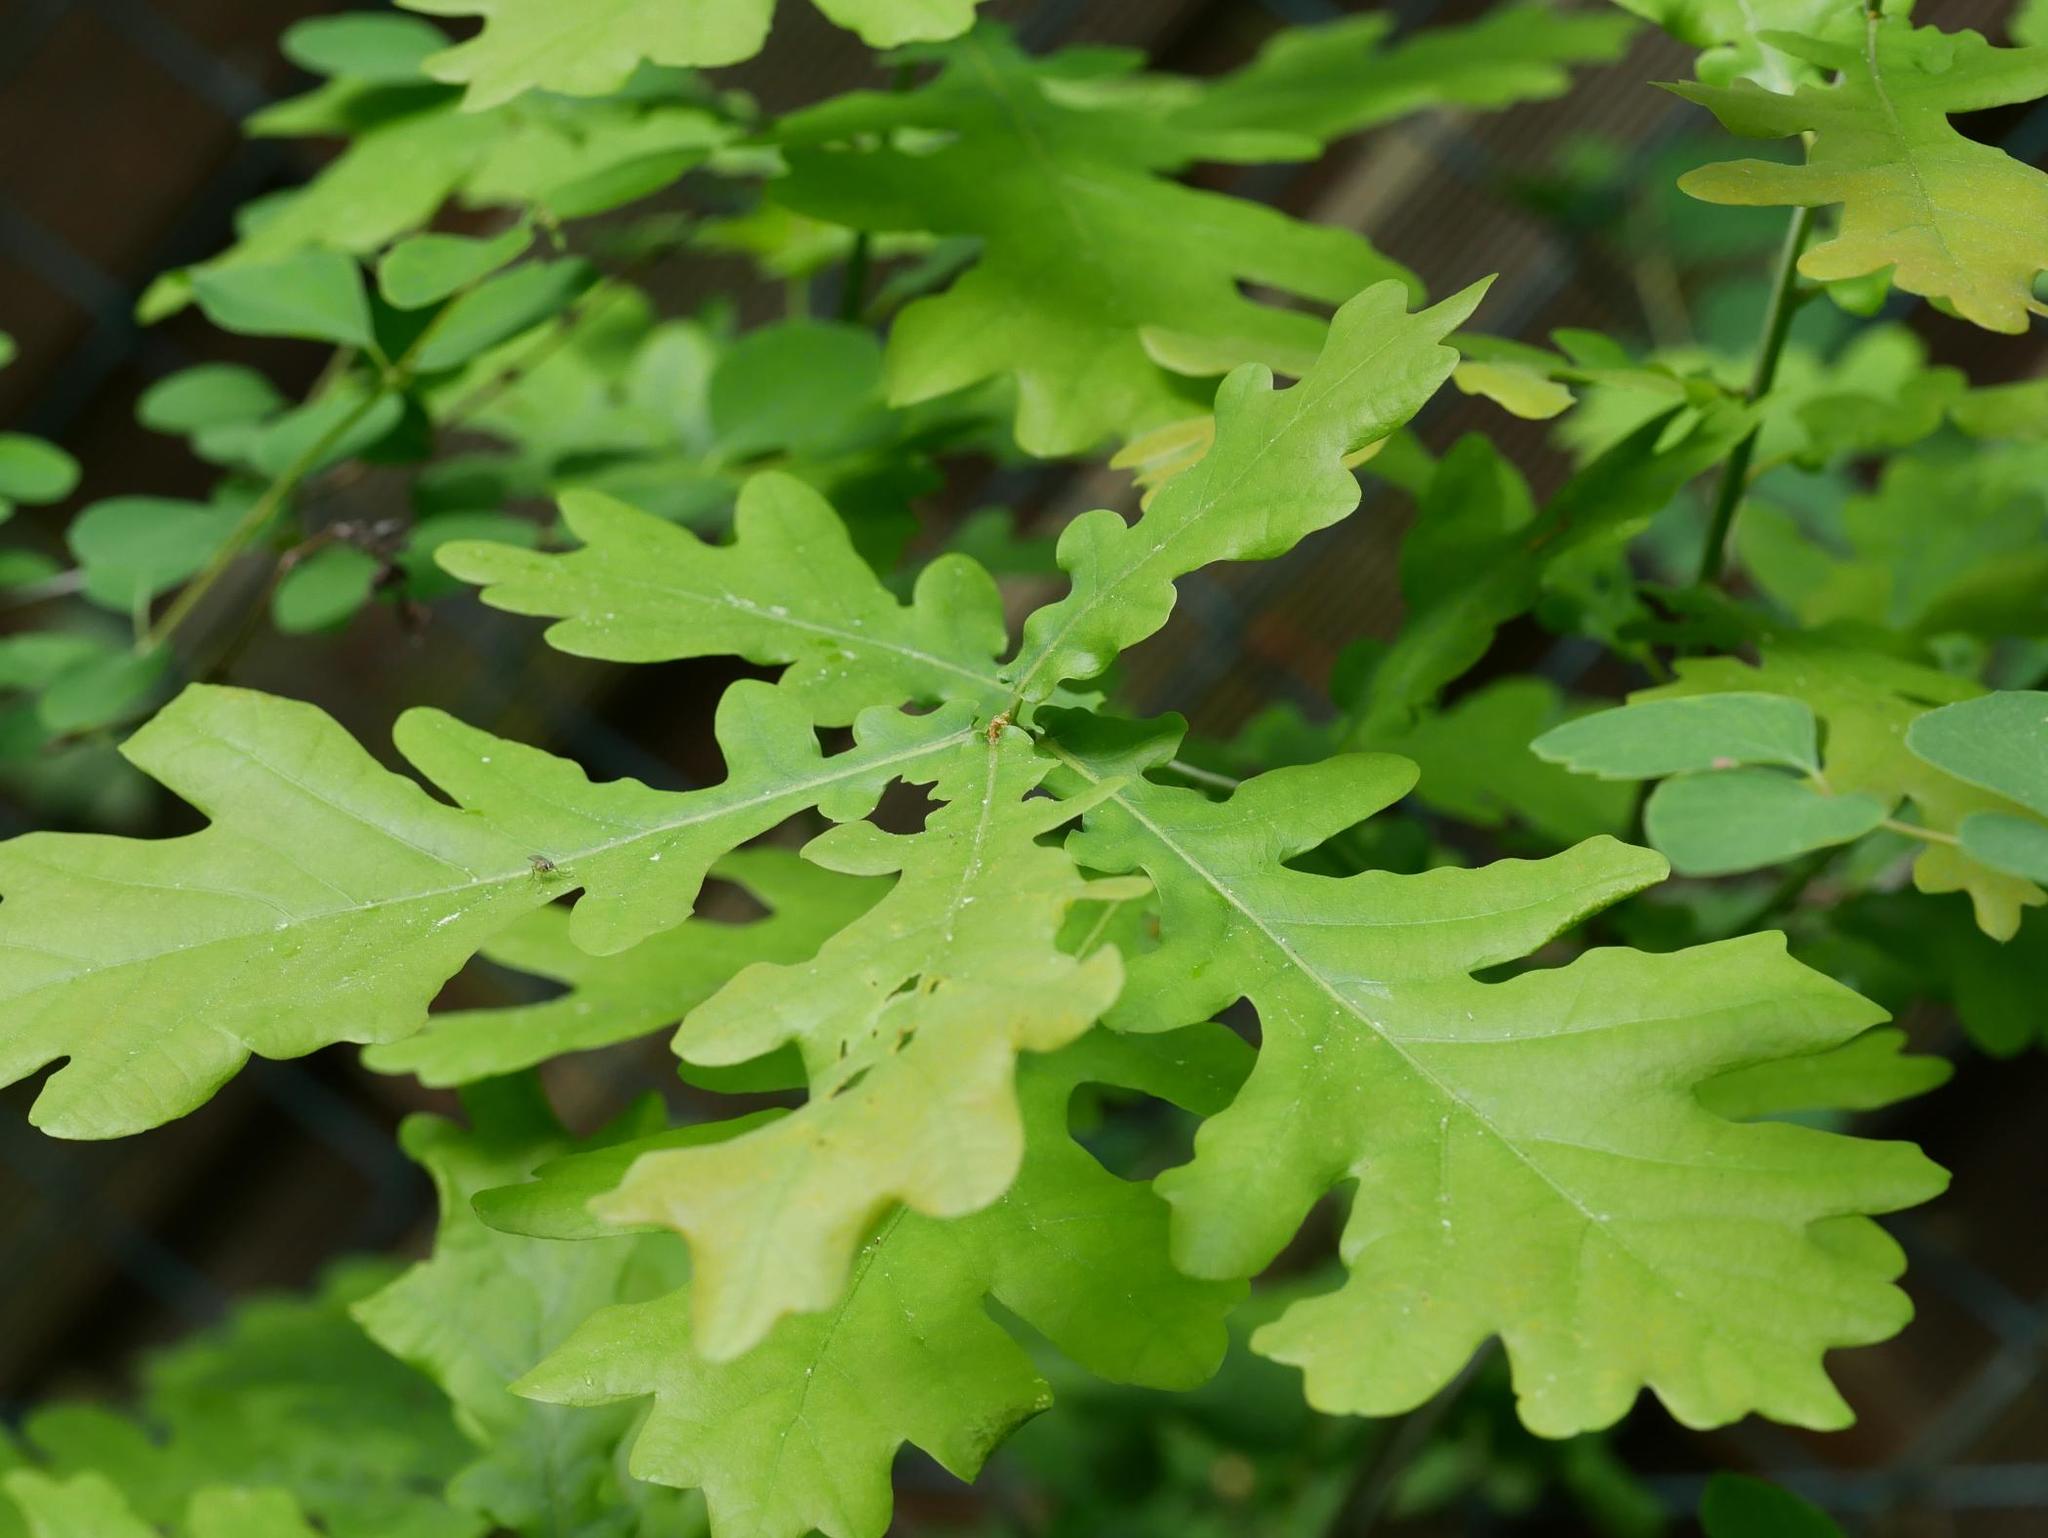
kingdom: Plantae
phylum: Tracheophyta
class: Magnoliopsida
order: Fagales
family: Fagaceae
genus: Quercus
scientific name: Quercus robur
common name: Pedunculate oak
